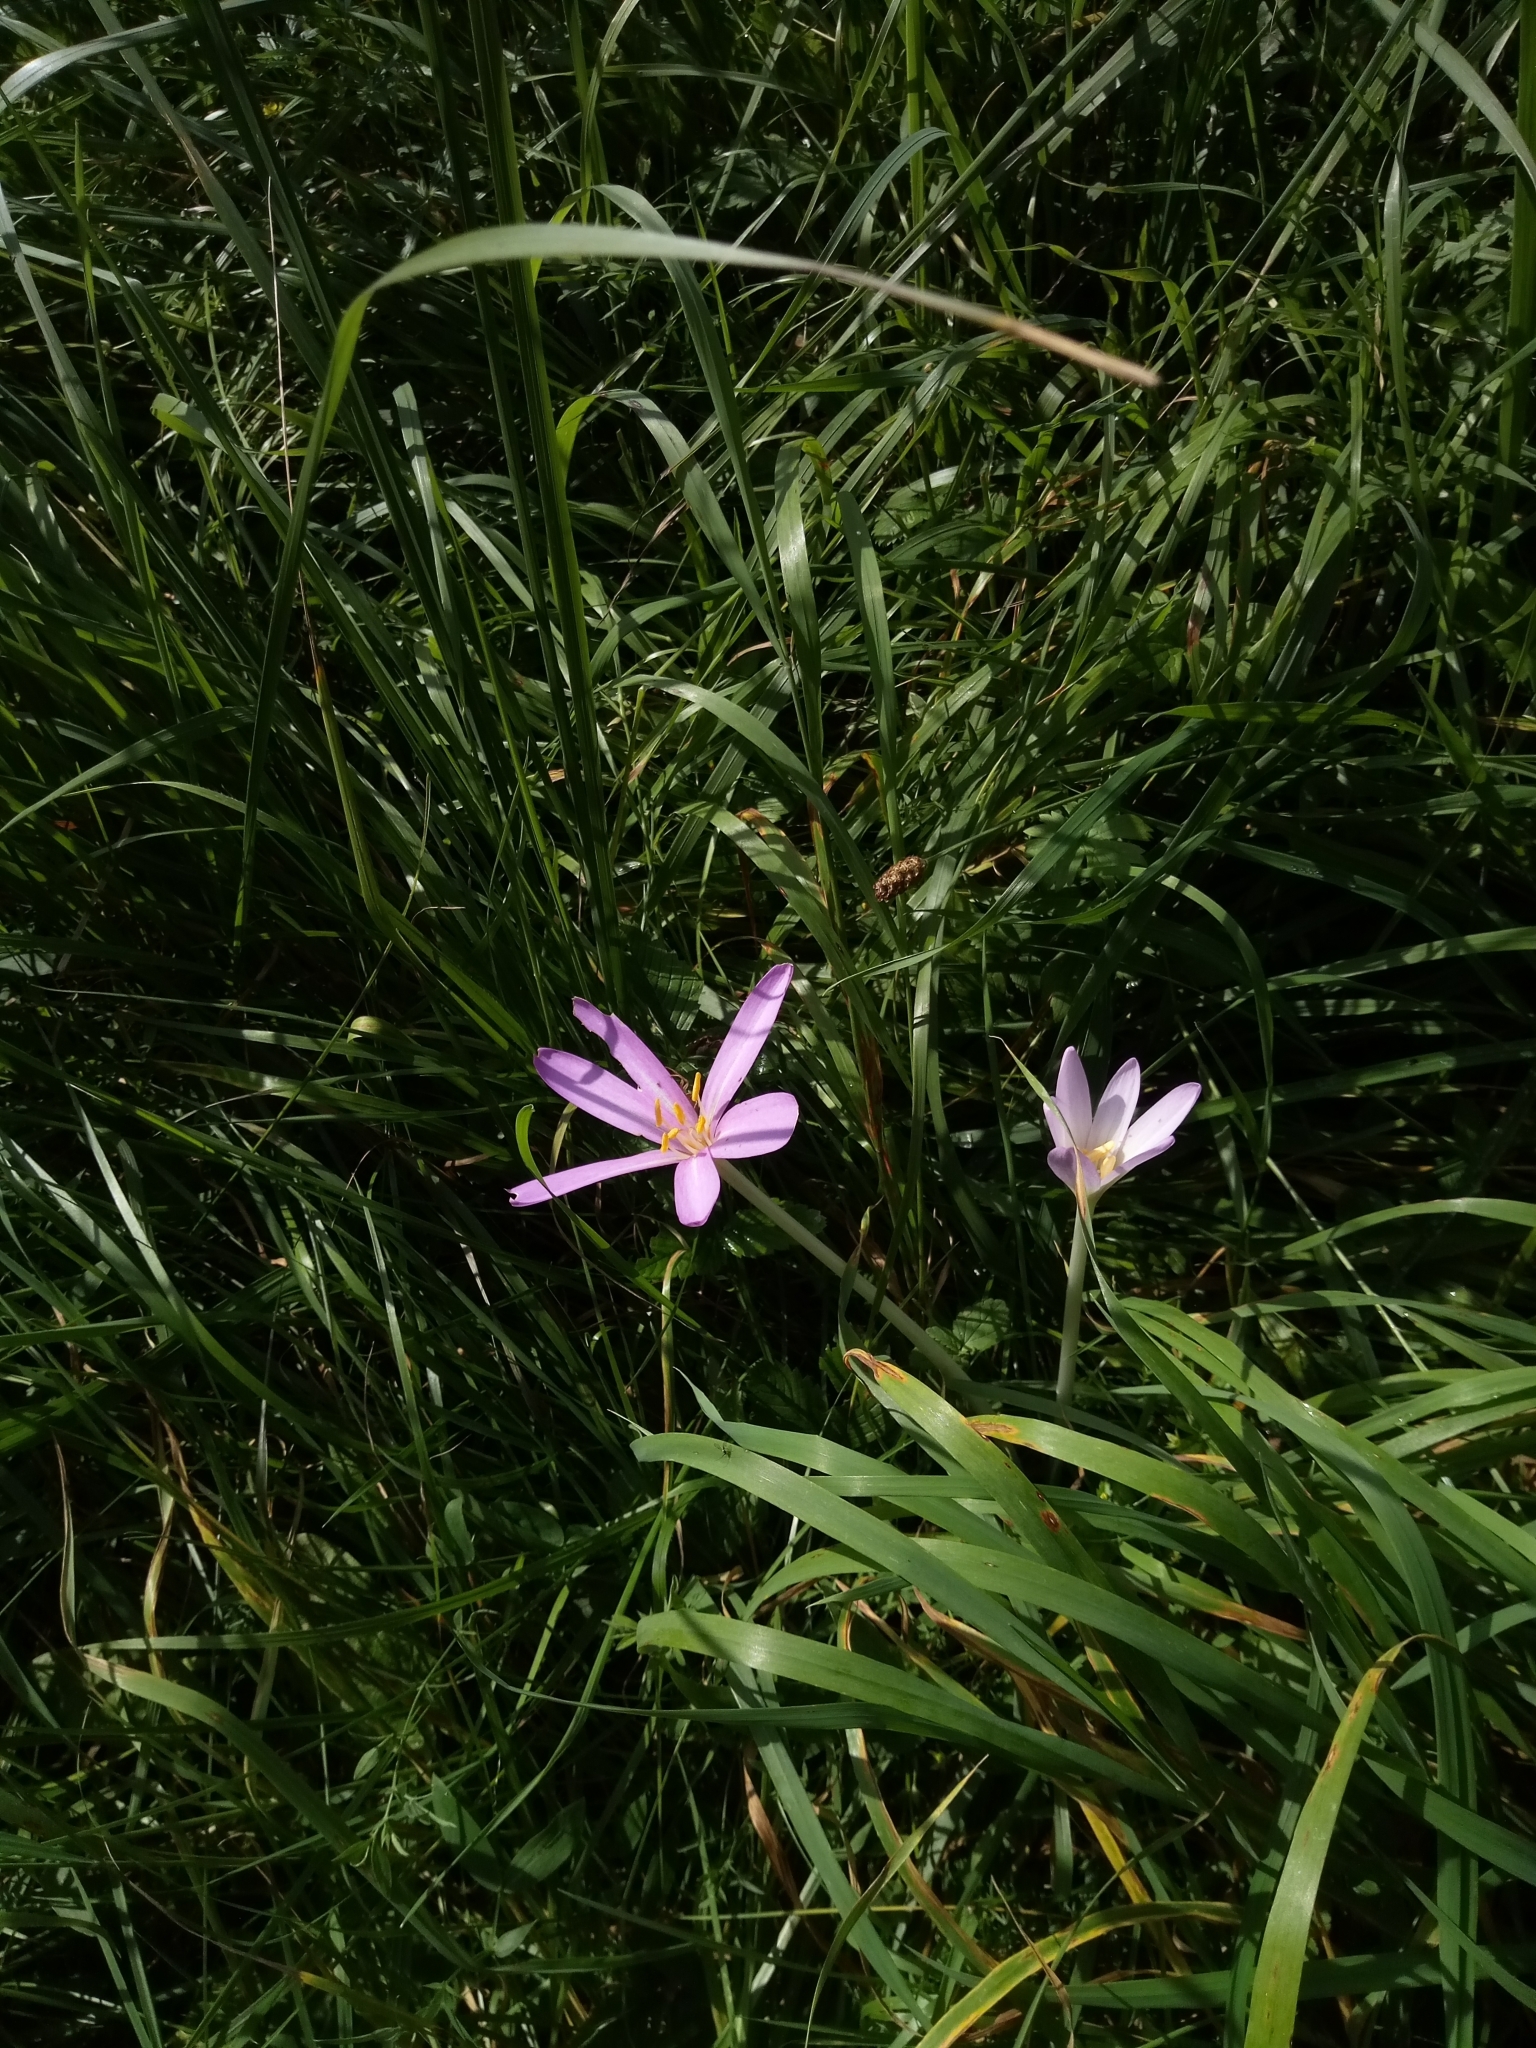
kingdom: Plantae
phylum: Tracheophyta
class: Liliopsida
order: Liliales
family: Colchicaceae
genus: Colchicum
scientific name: Colchicum autumnale
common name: Autumn crocus
